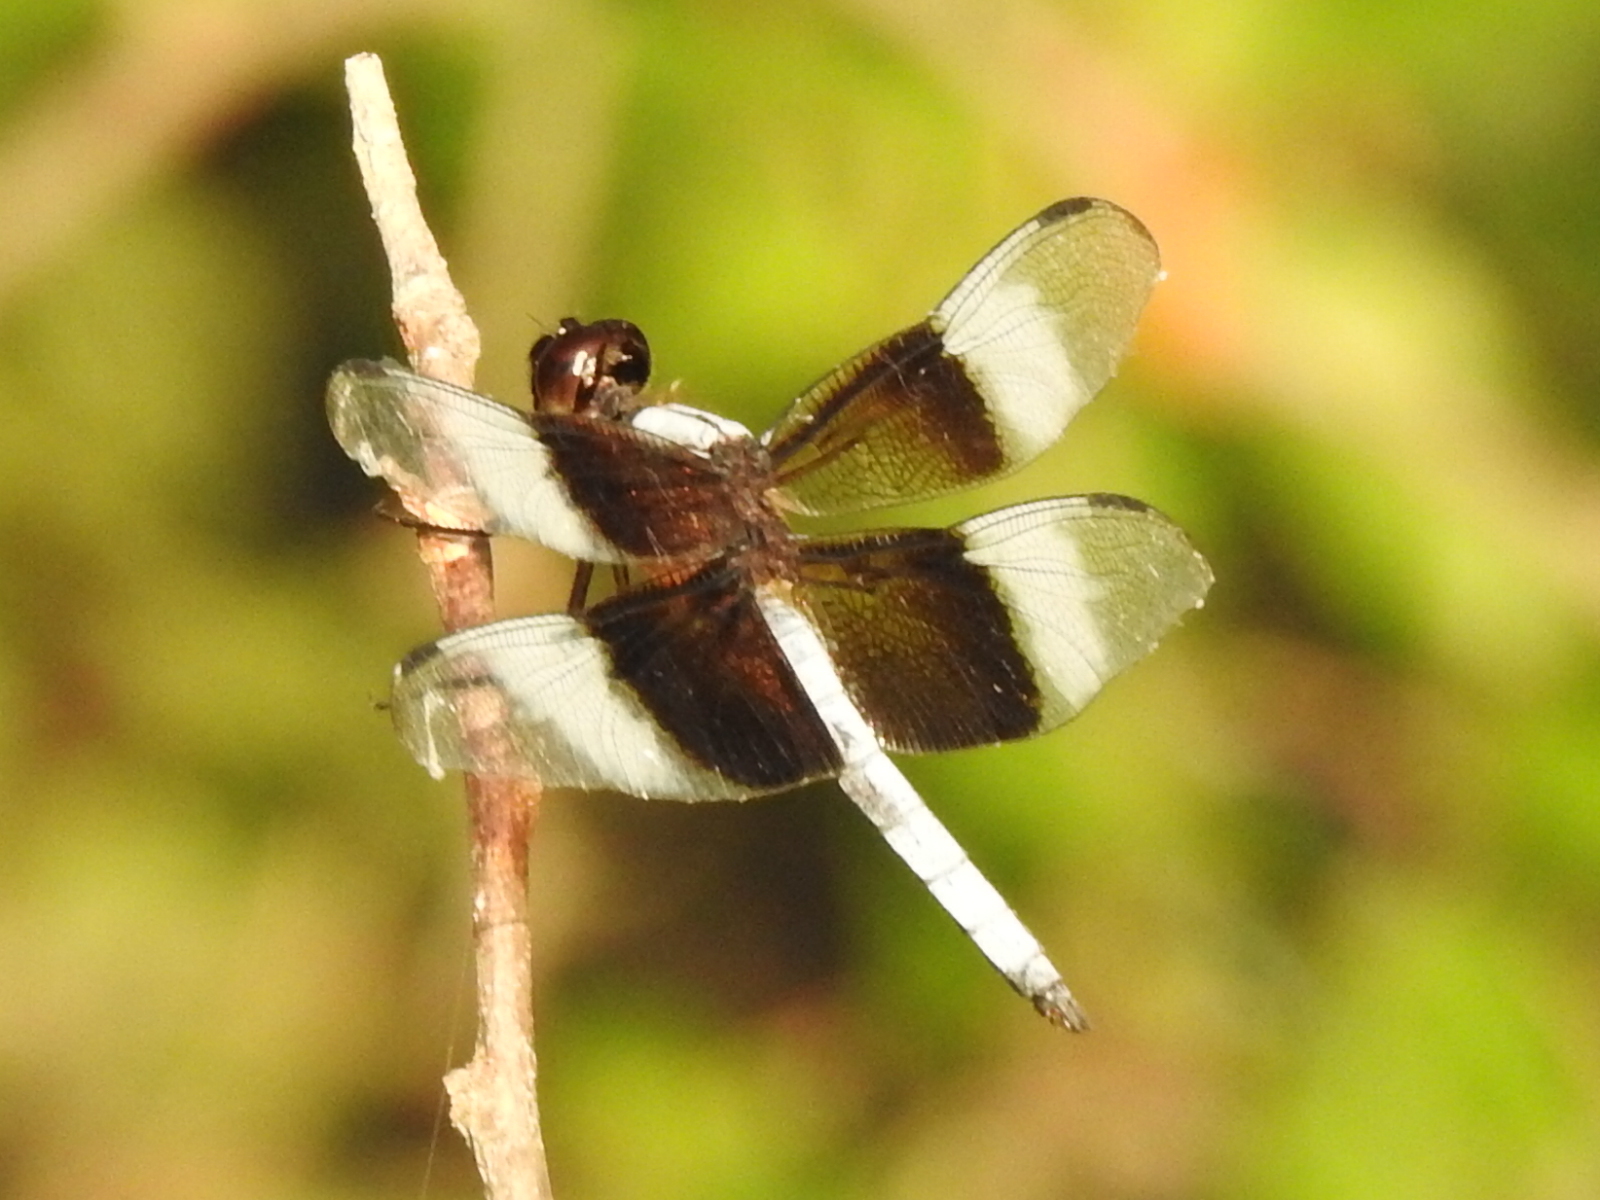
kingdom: Animalia
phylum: Arthropoda
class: Insecta
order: Odonata
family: Libellulidae
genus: Libellula
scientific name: Libellula luctuosa
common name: Widow skimmer
